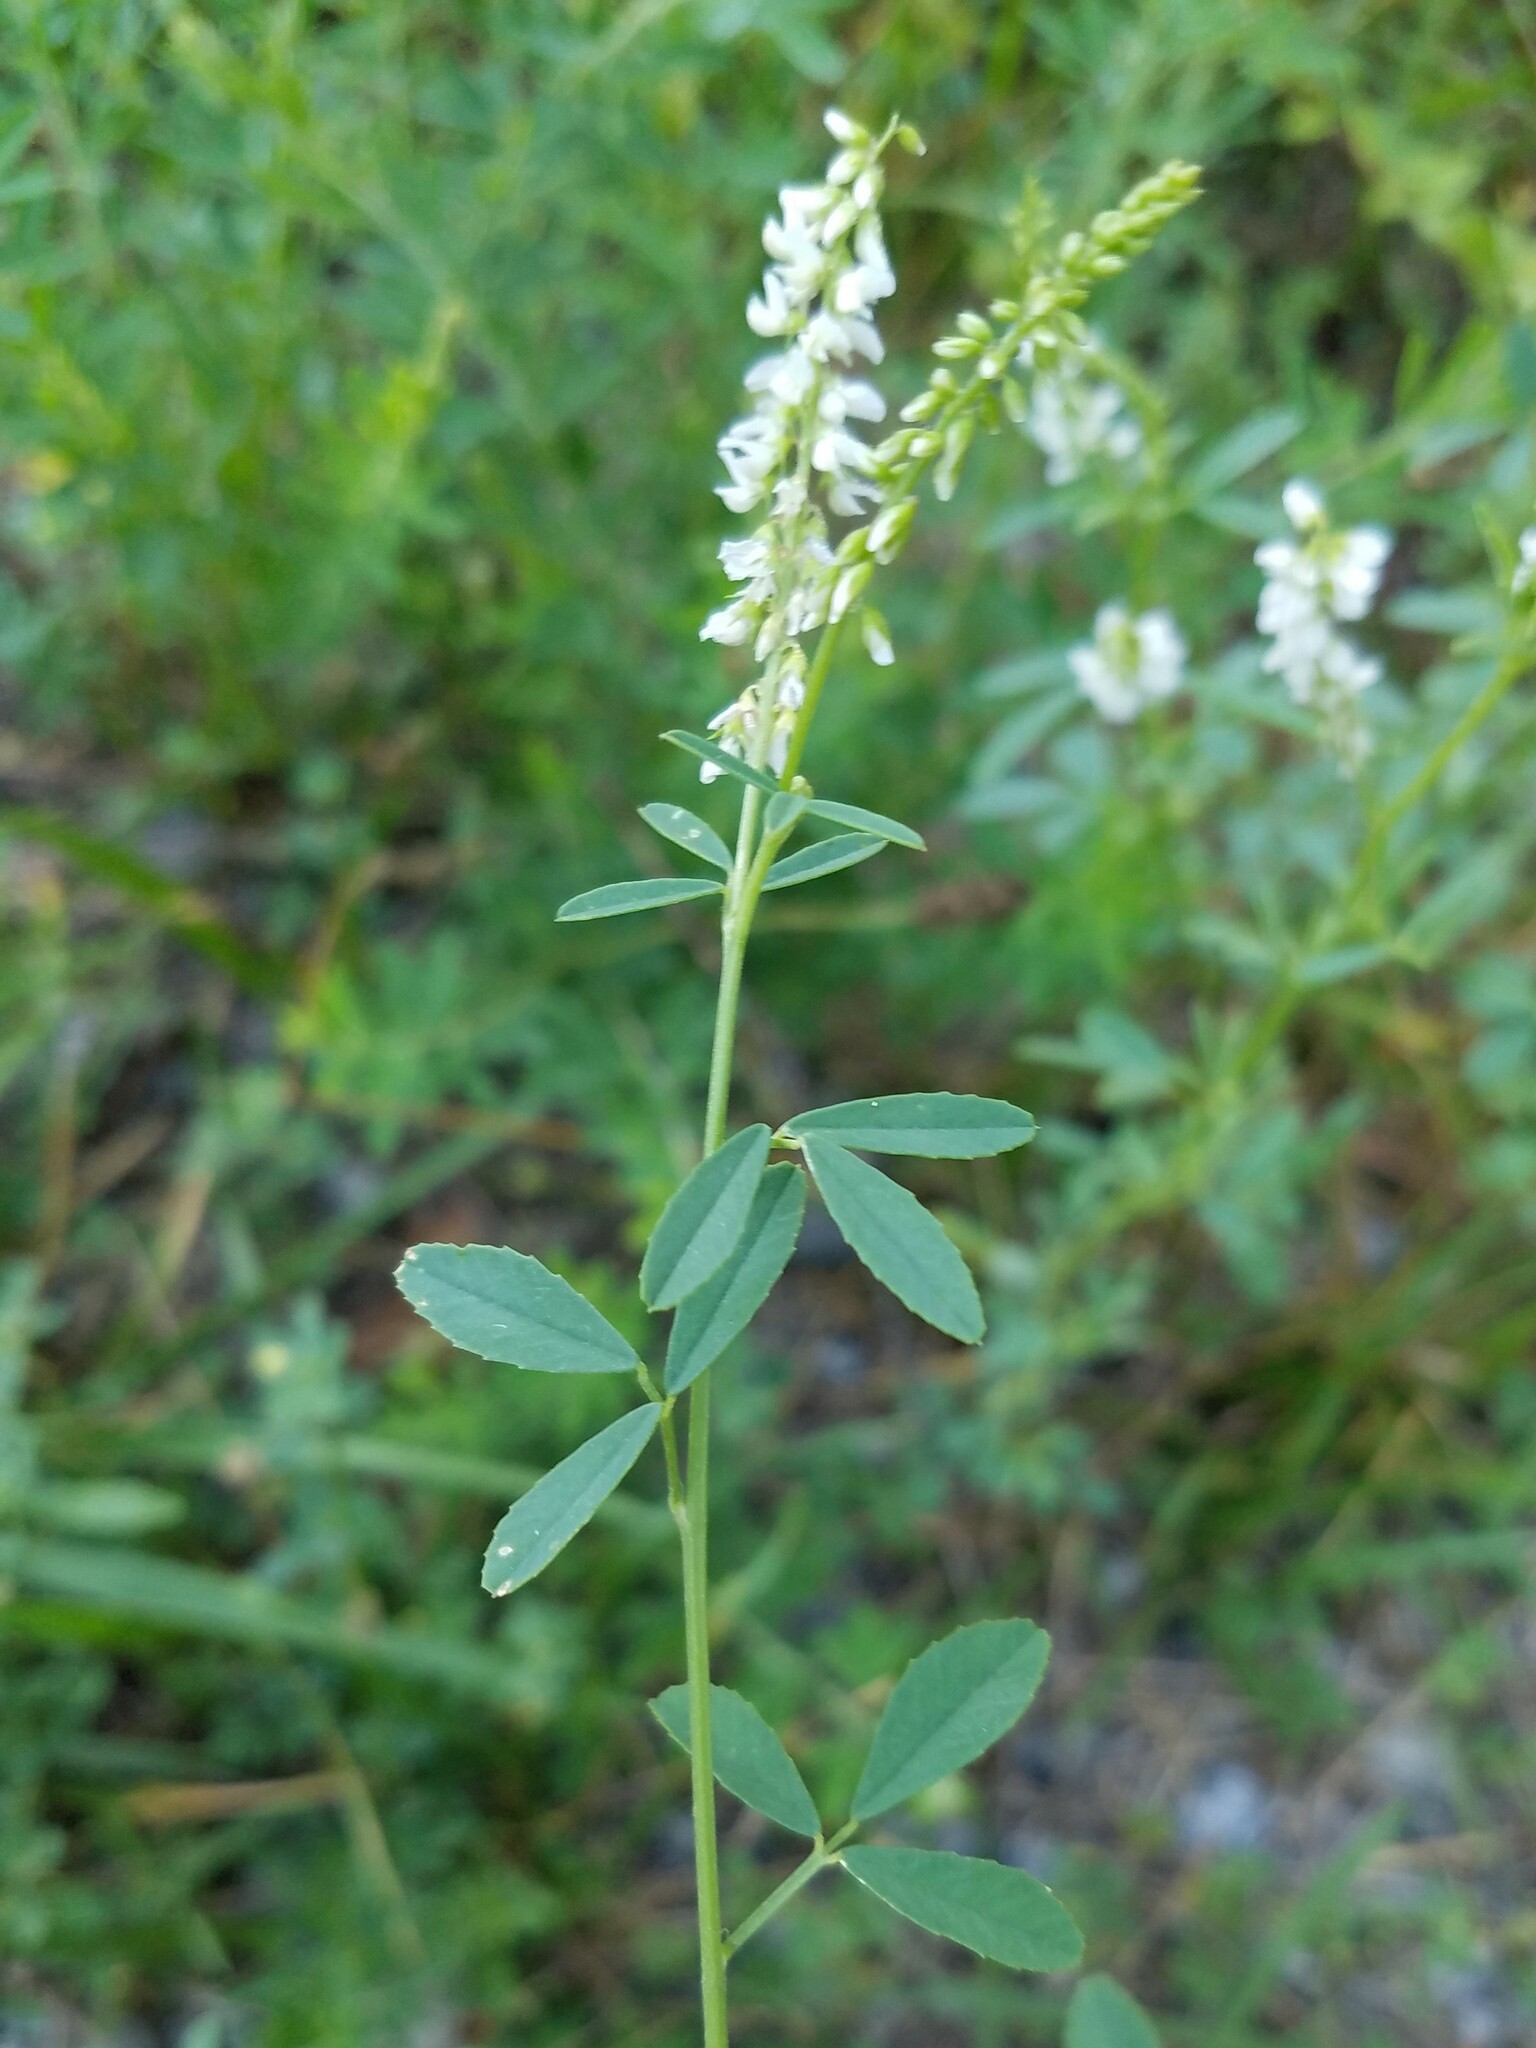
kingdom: Plantae
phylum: Tracheophyta
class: Magnoliopsida
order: Fabales
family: Fabaceae
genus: Melilotus
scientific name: Melilotus albus
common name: White melilot
